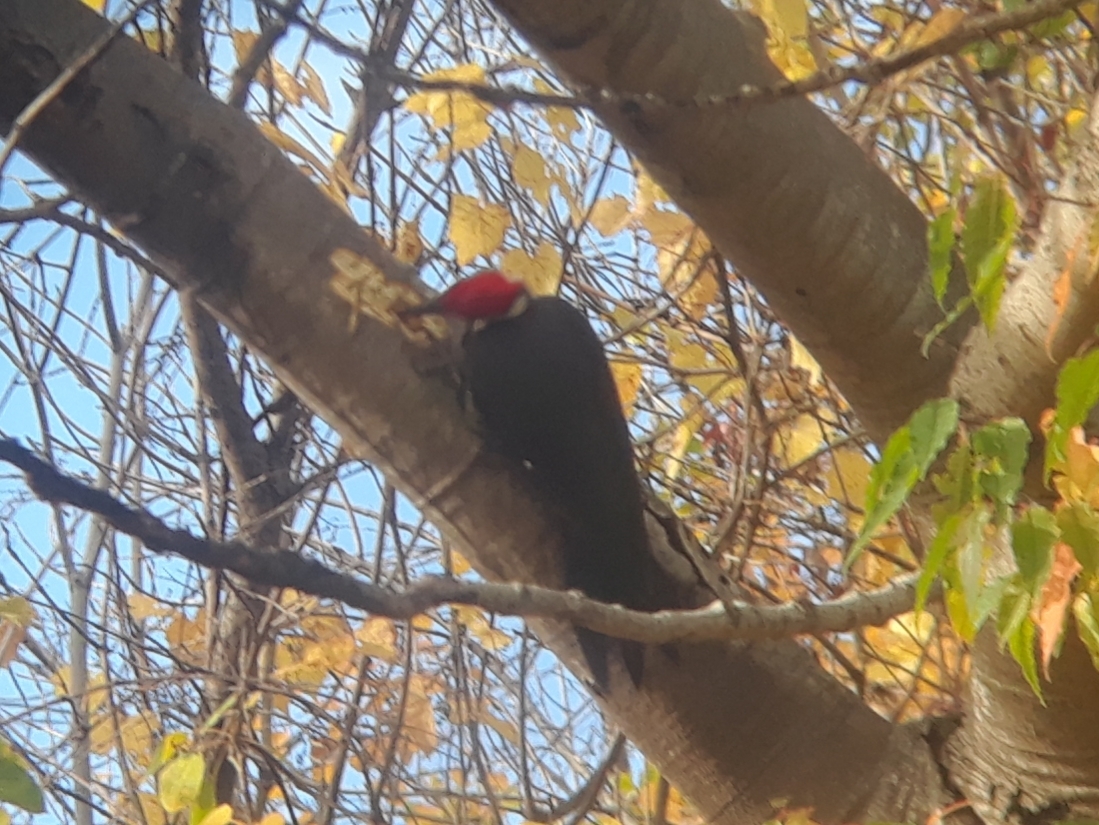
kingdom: Animalia
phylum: Chordata
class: Aves
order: Piciformes
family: Picidae
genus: Dryocopus
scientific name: Dryocopus pileatus
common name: Pileated woodpecker
